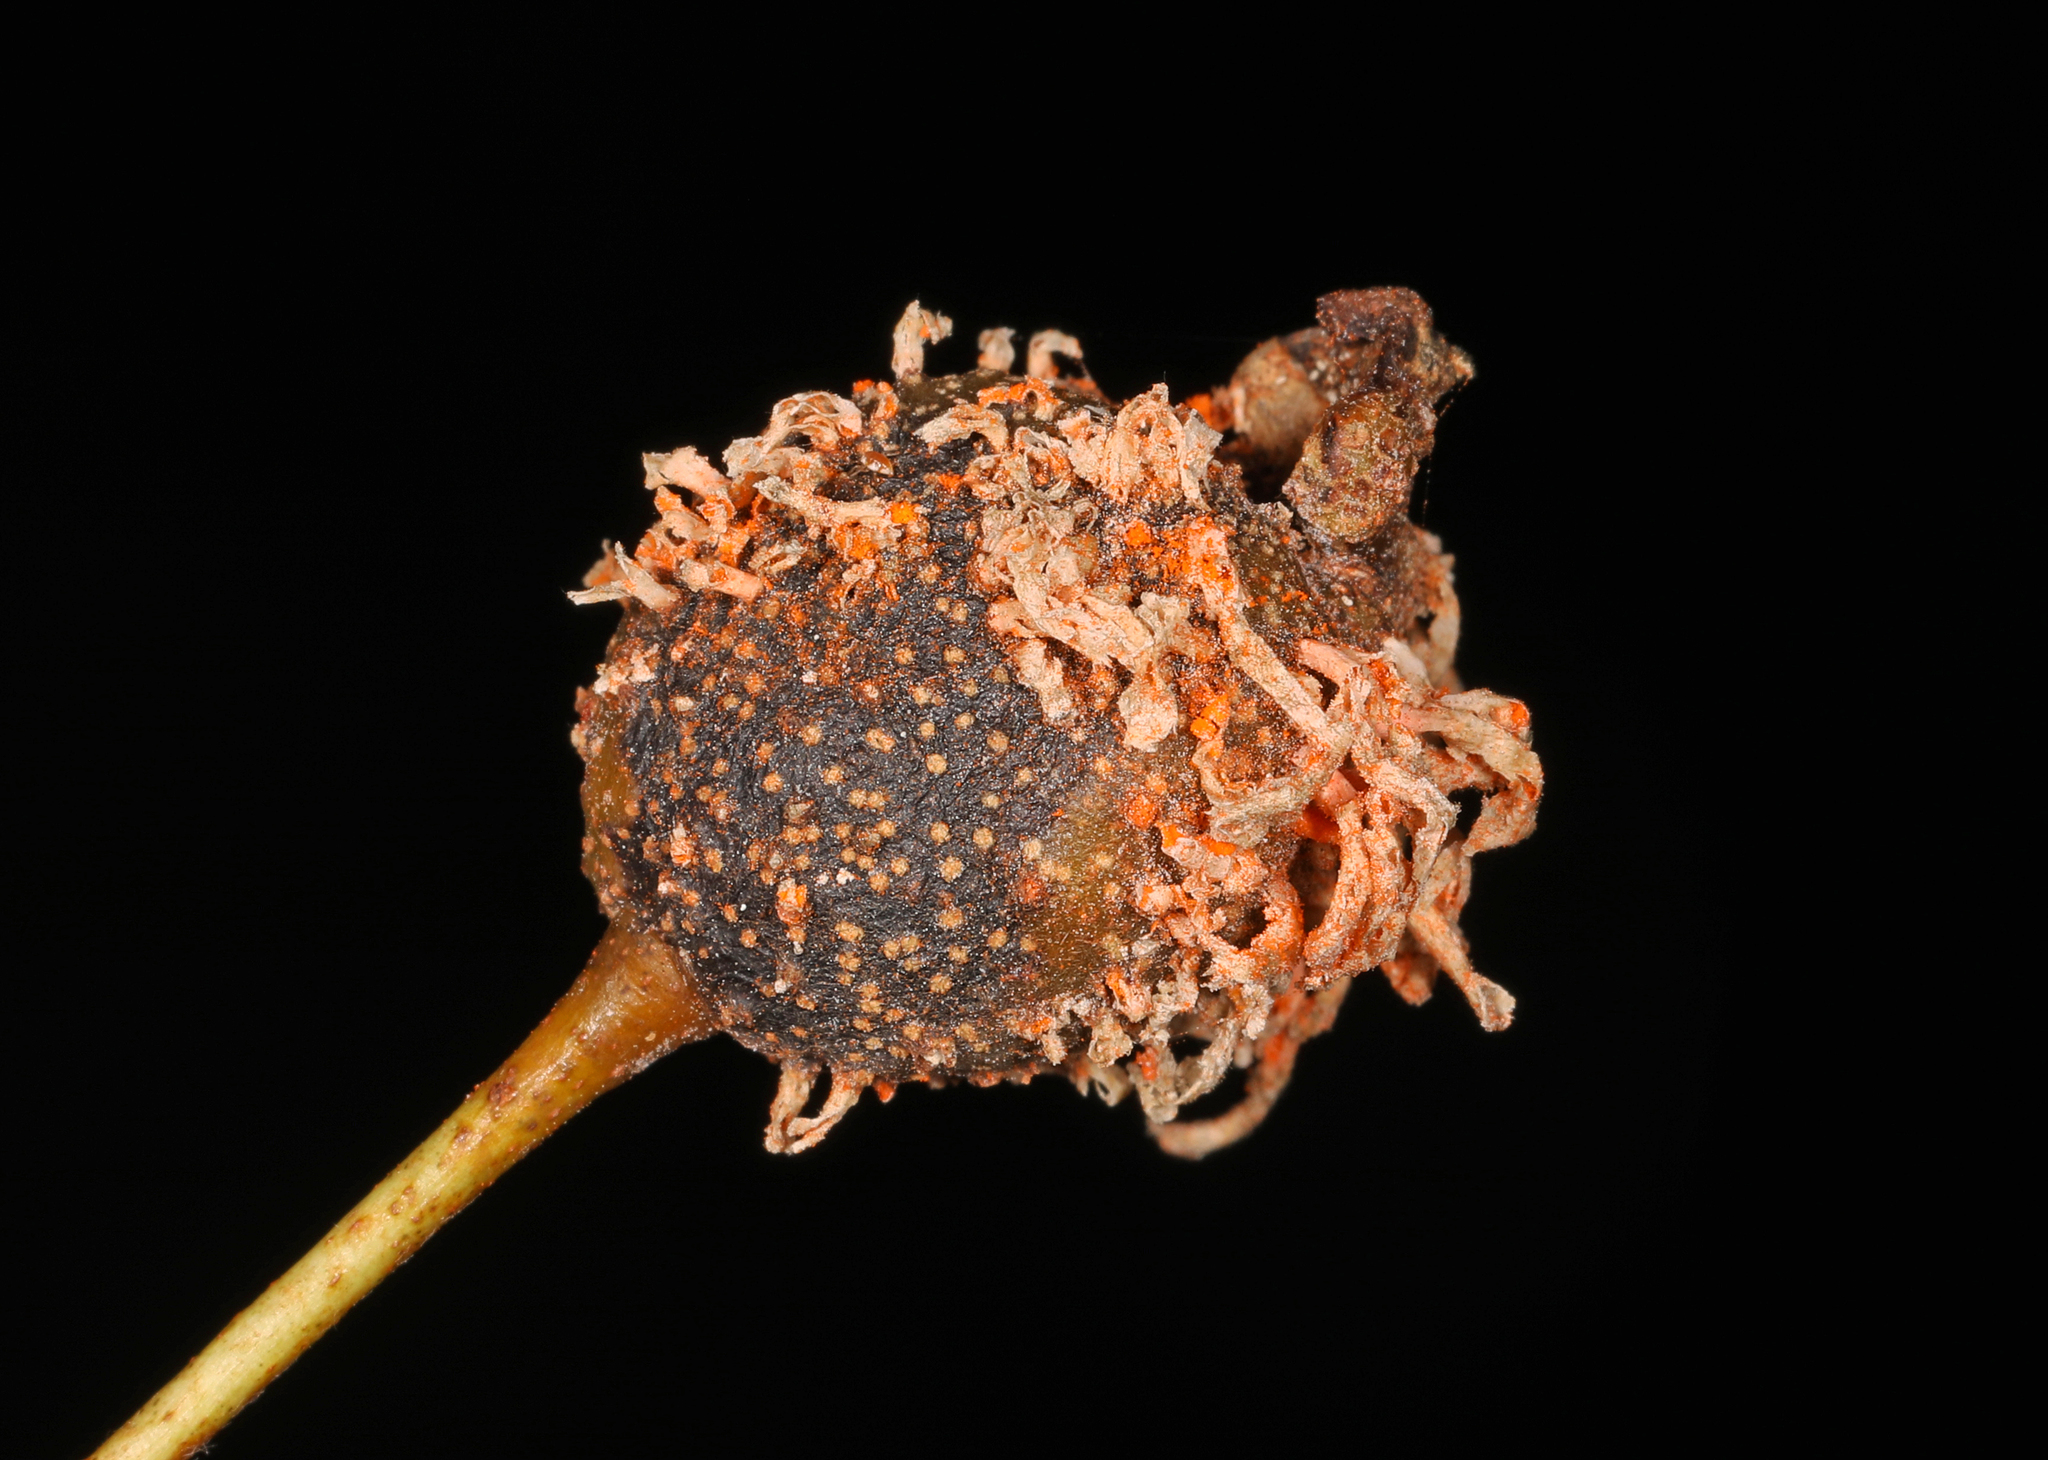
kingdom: Fungi
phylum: Basidiomycota
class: Pucciniomycetes
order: Pucciniales
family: Gymnosporangiaceae
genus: Gymnosporangium
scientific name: Gymnosporangium globosum
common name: Juniper-hawthorn rust
